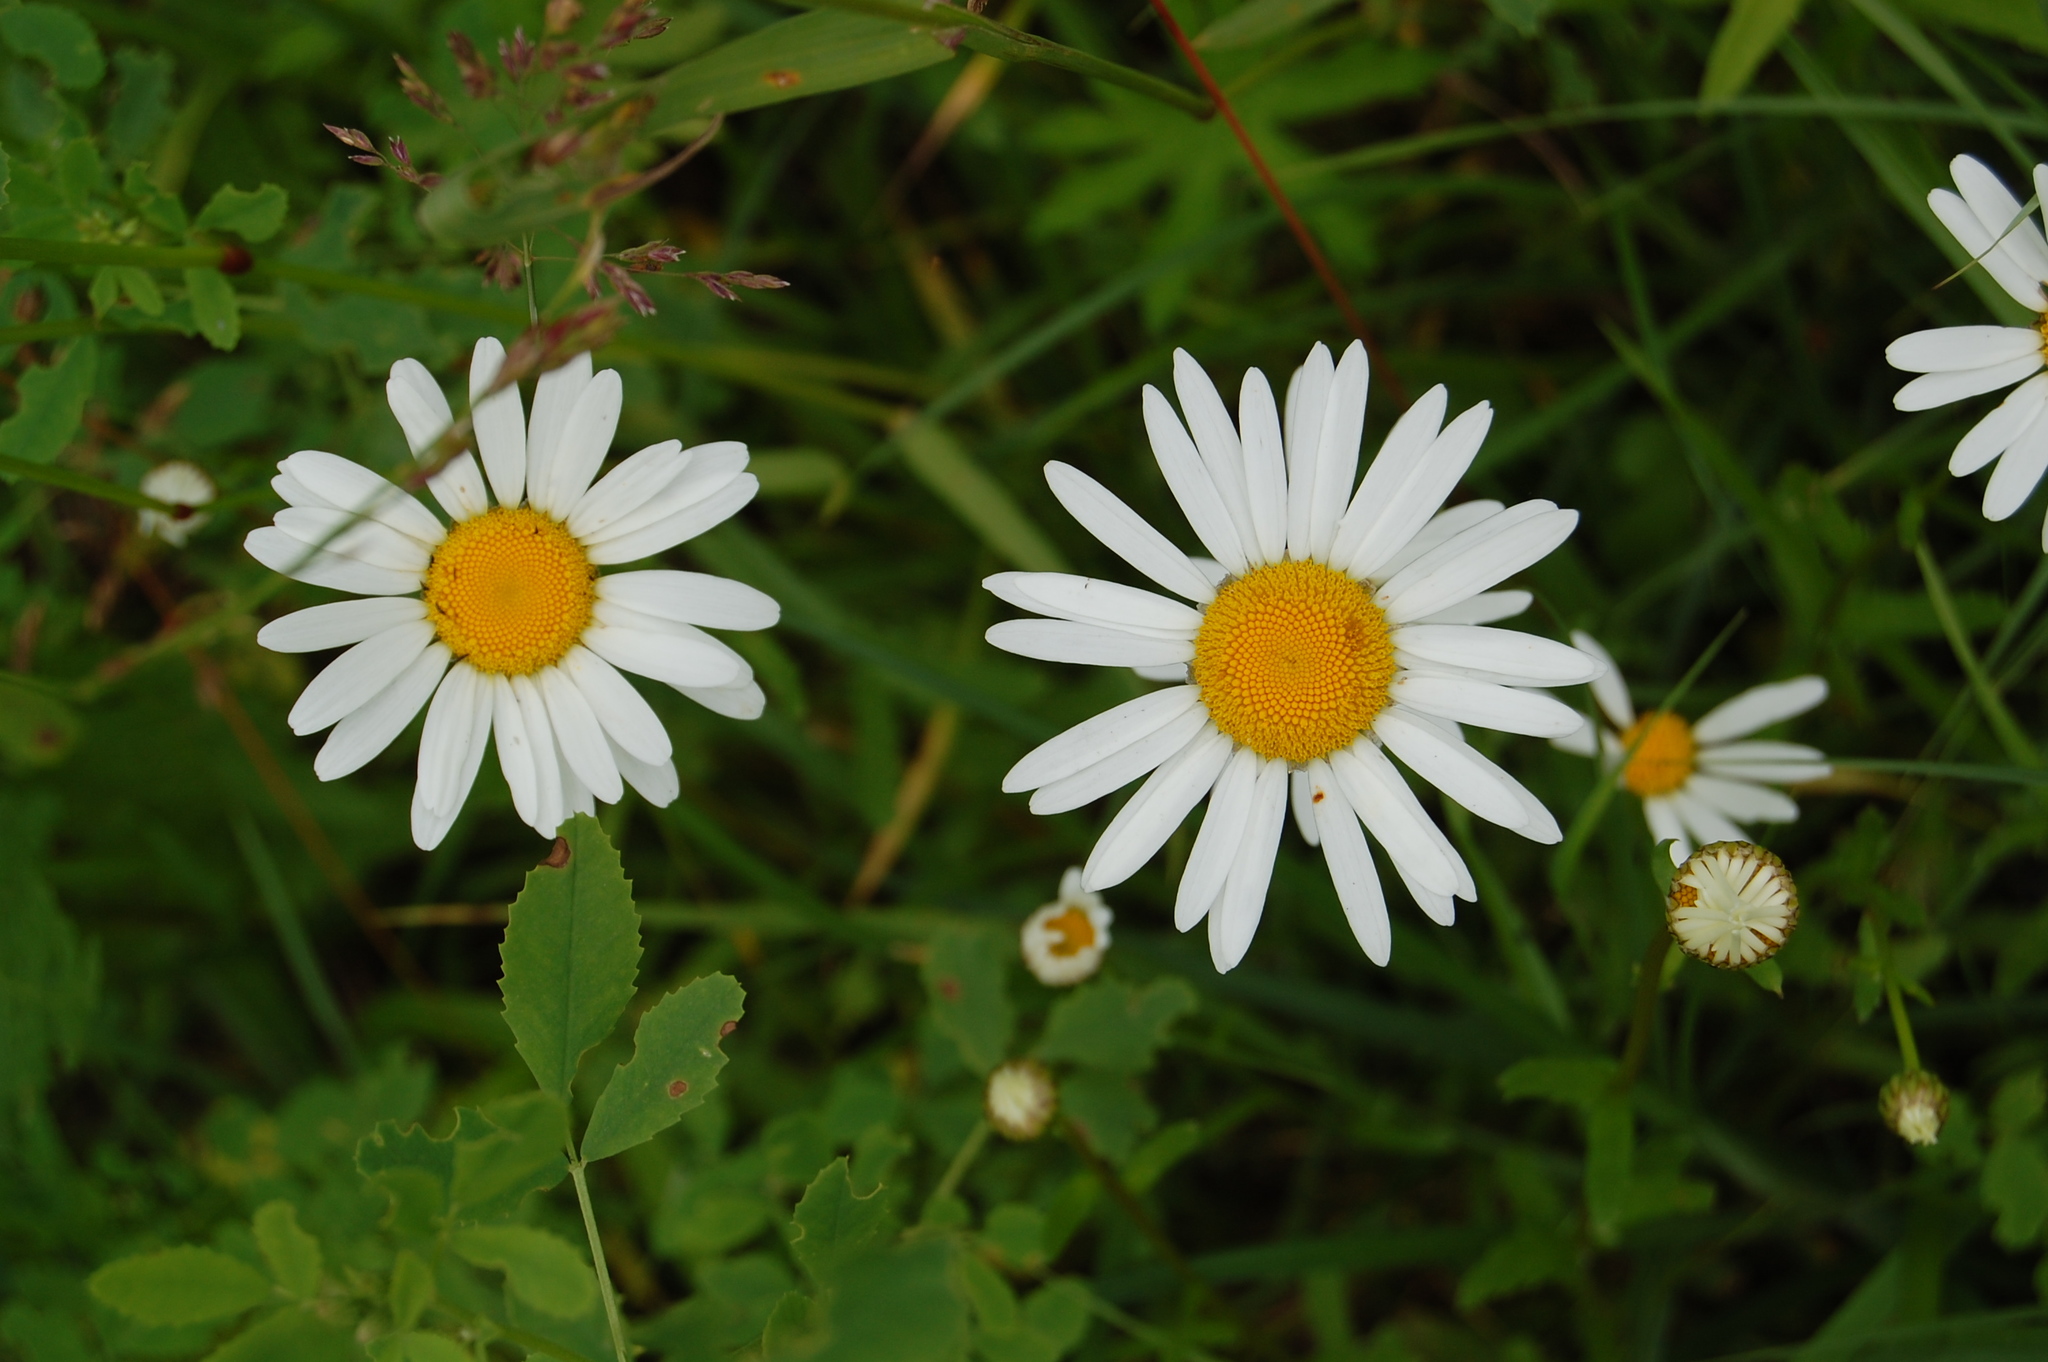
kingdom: Plantae
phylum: Tracheophyta
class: Magnoliopsida
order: Asterales
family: Asteraceae
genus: Leucanthemum
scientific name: Leucanthemum vulgare
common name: Oxeye daisy
